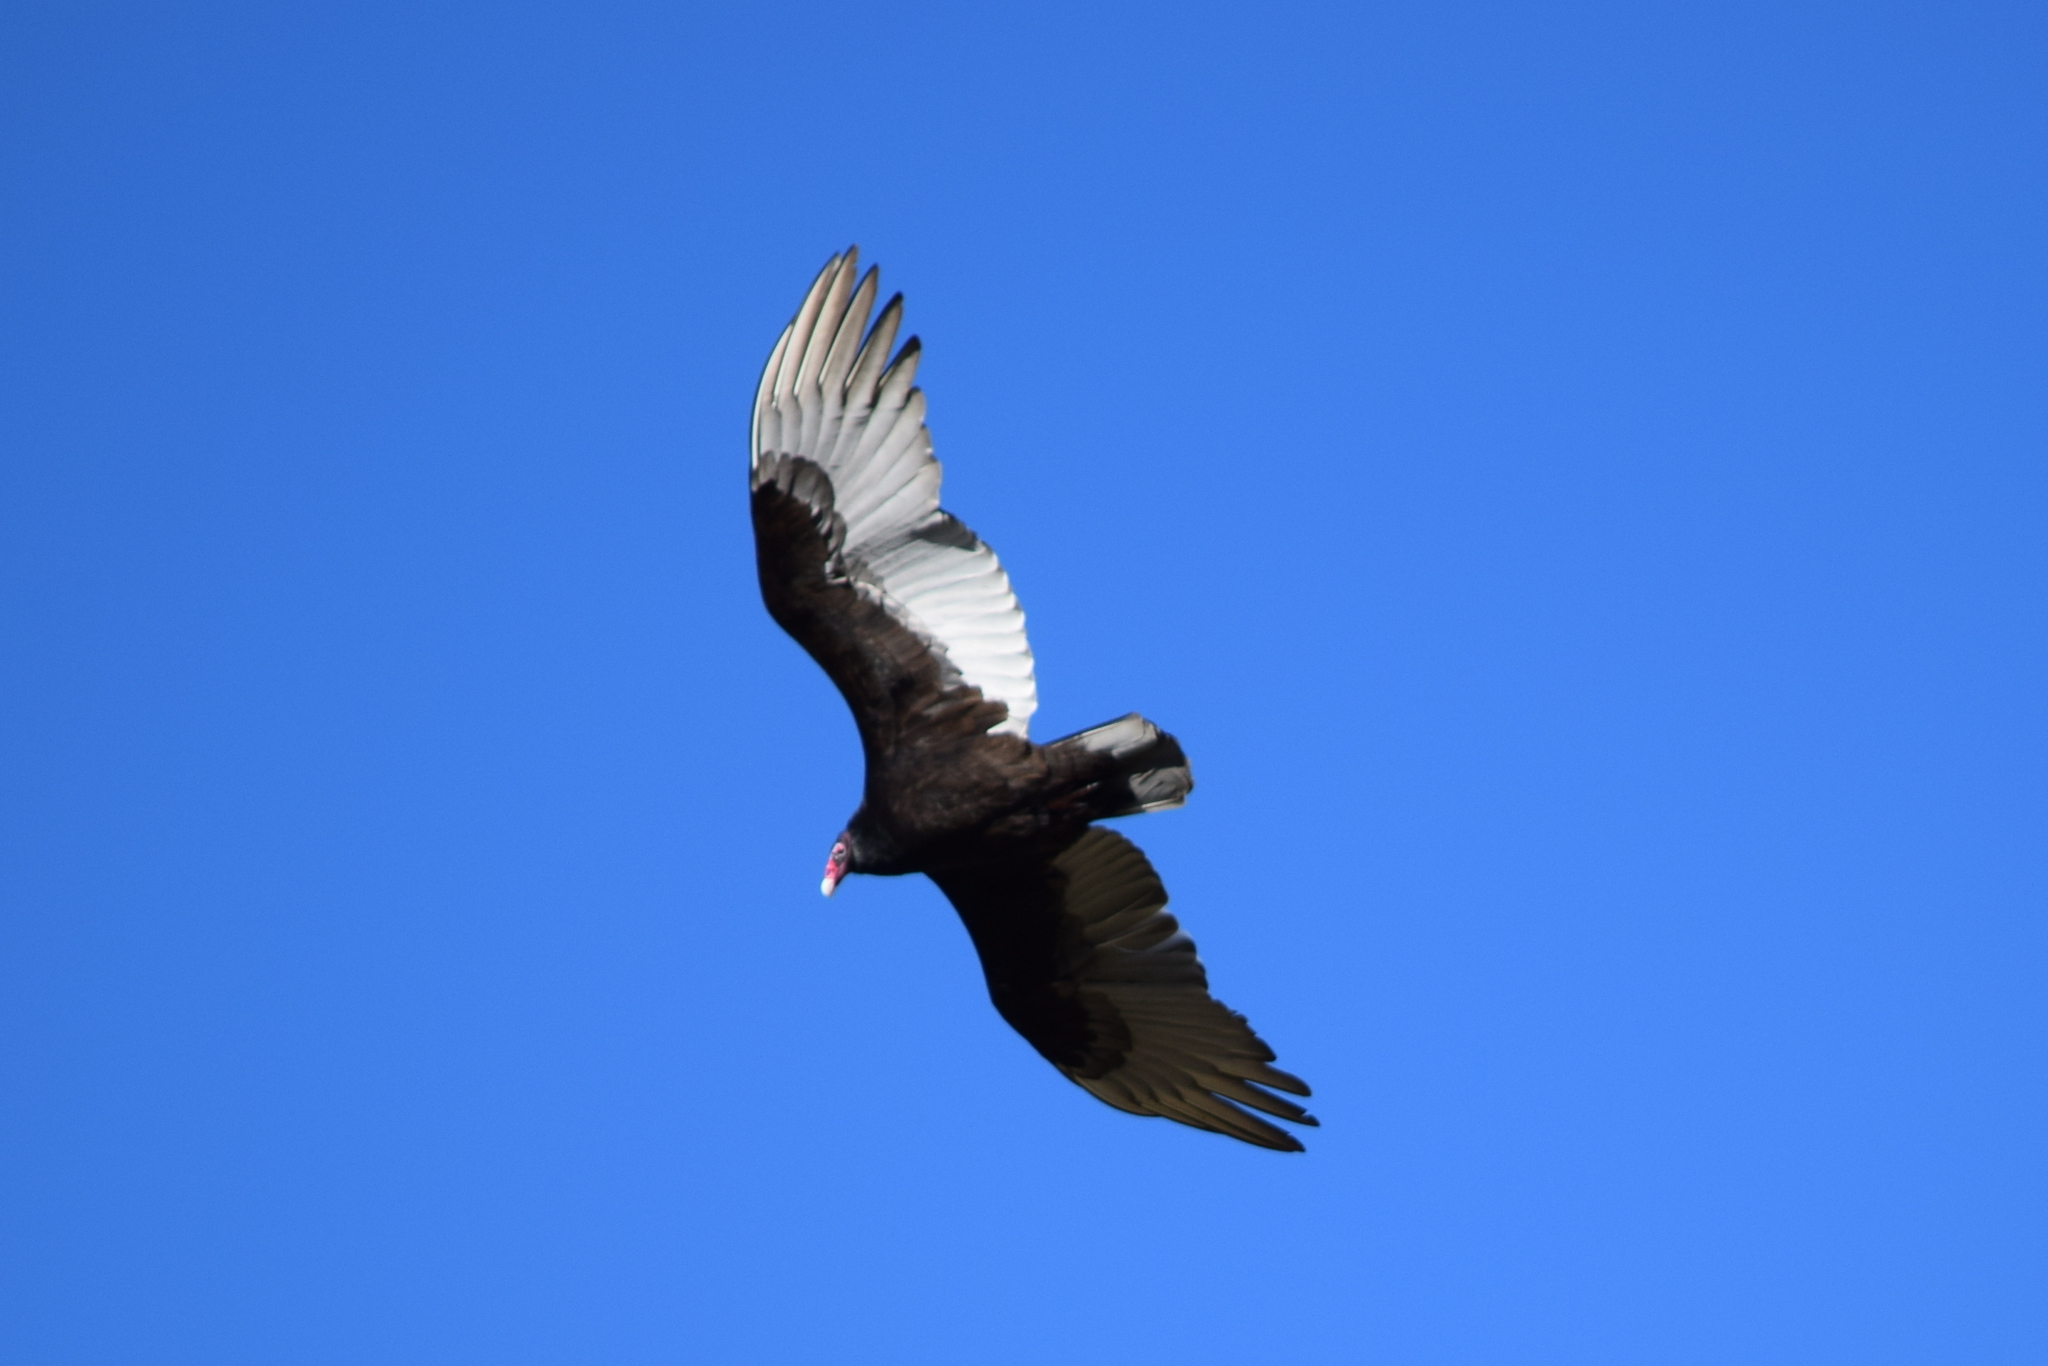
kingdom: Animalia
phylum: Chordata
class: Aves
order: Accipitriformes
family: Cathartidae
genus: Cathartes
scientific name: Cathartes aura
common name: Turkey vulture
